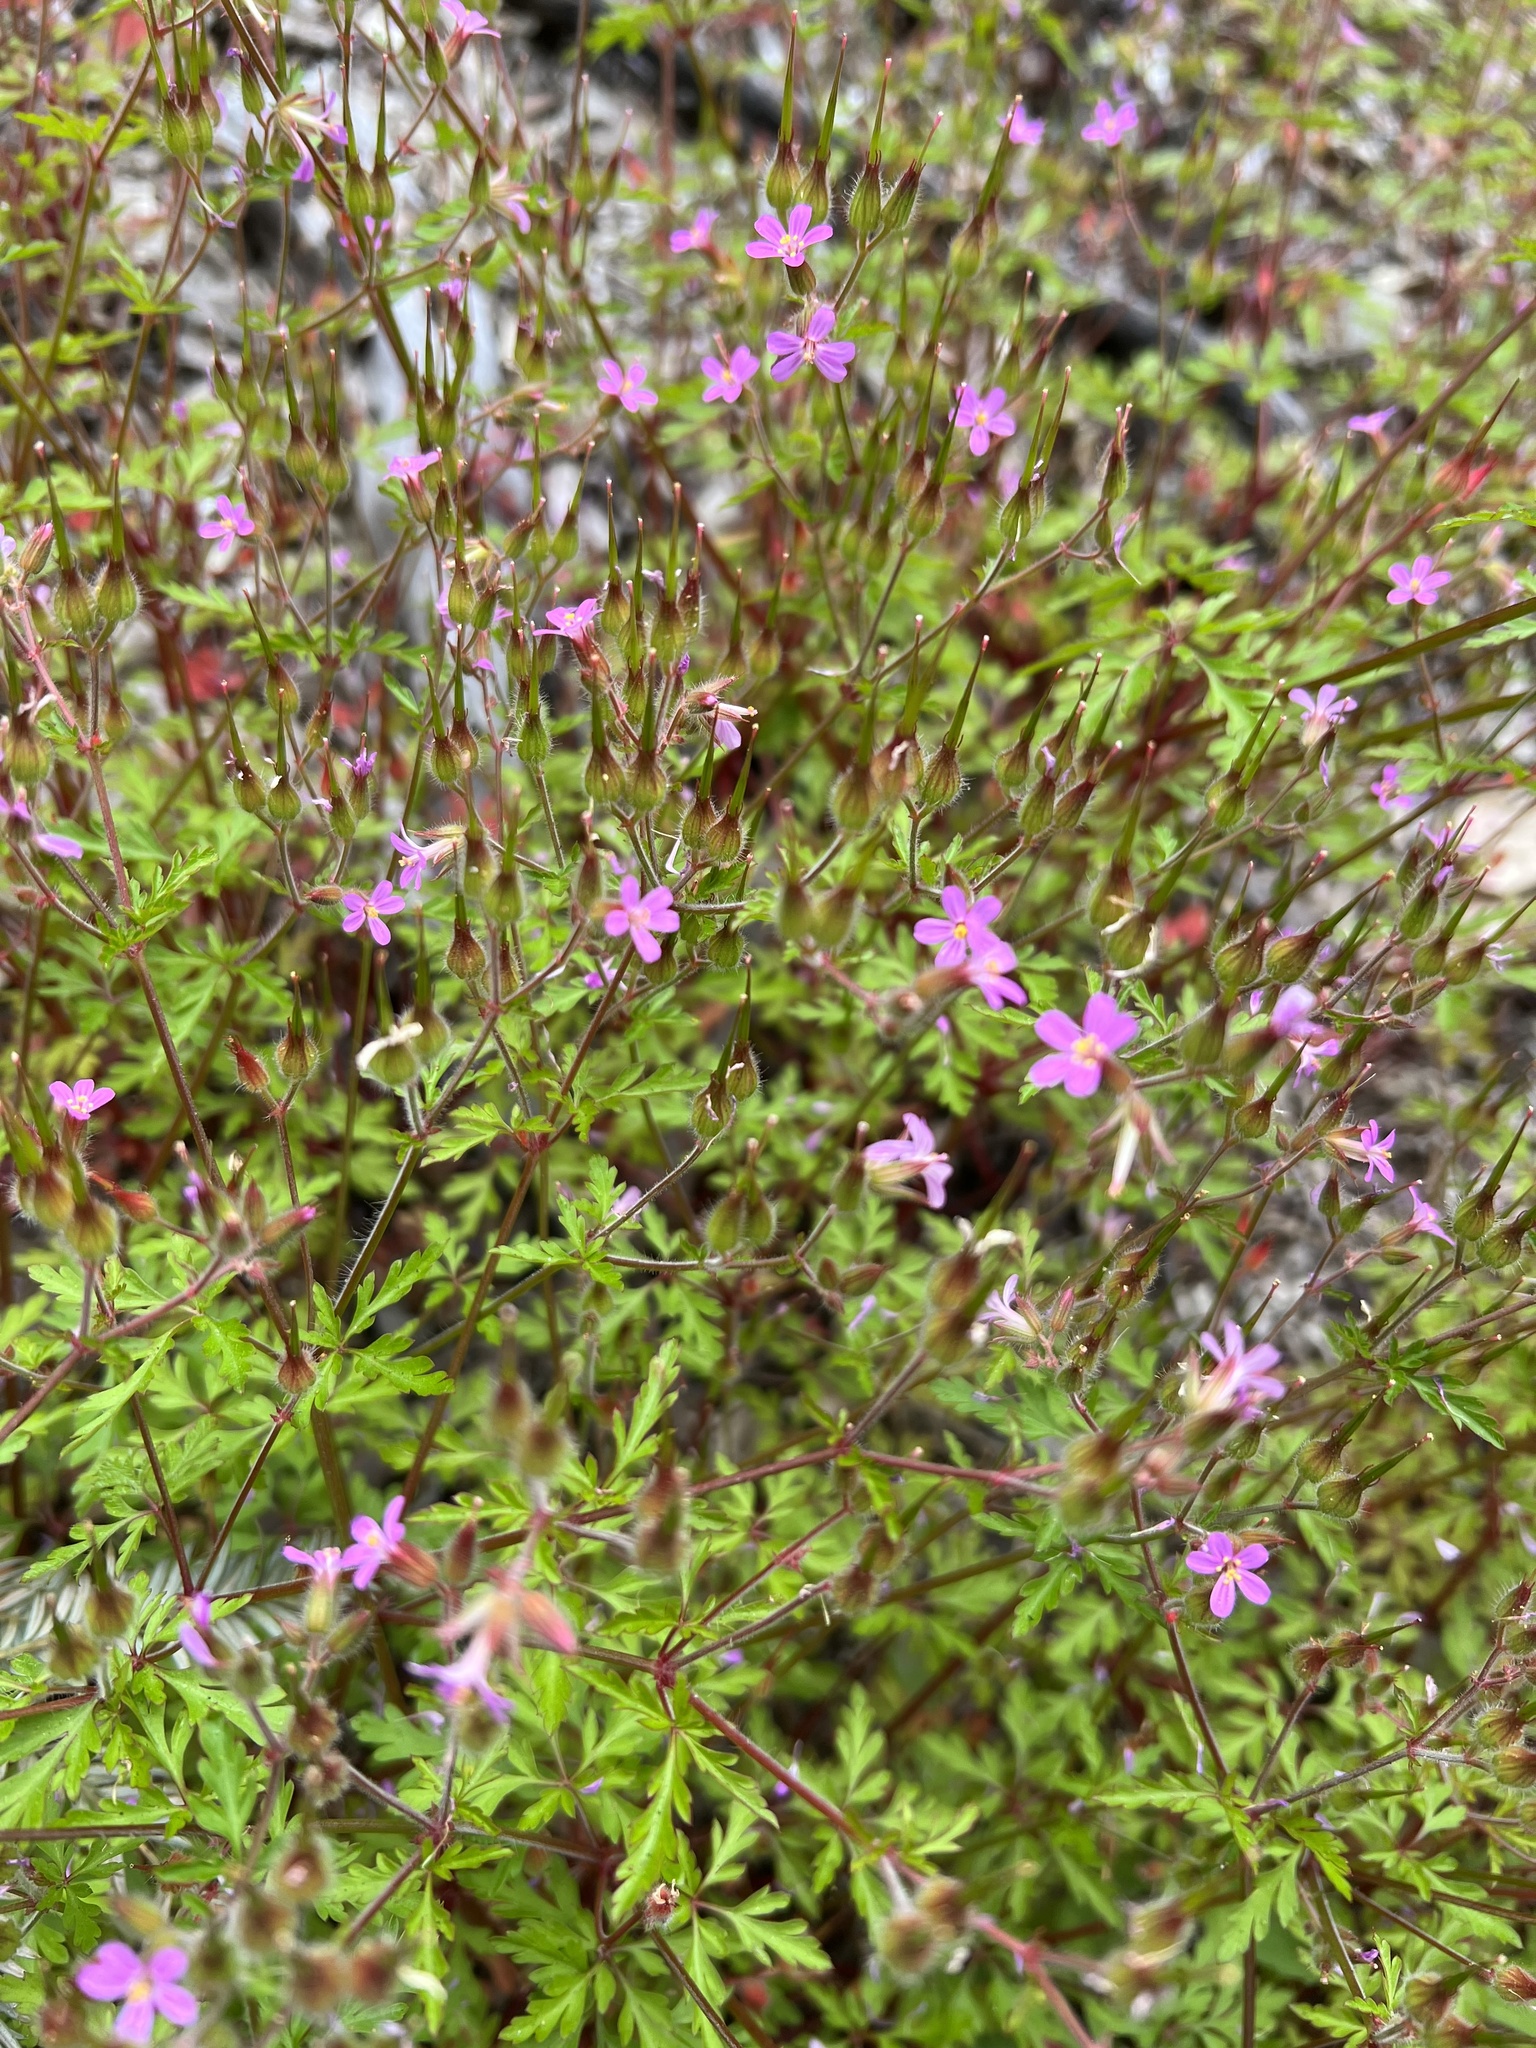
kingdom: Plantae
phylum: Tracheophyta
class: Magnoliopsida
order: Geraniales
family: Geraniaceae
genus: Geranium
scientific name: Geranium purpureum
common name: Little-robin
